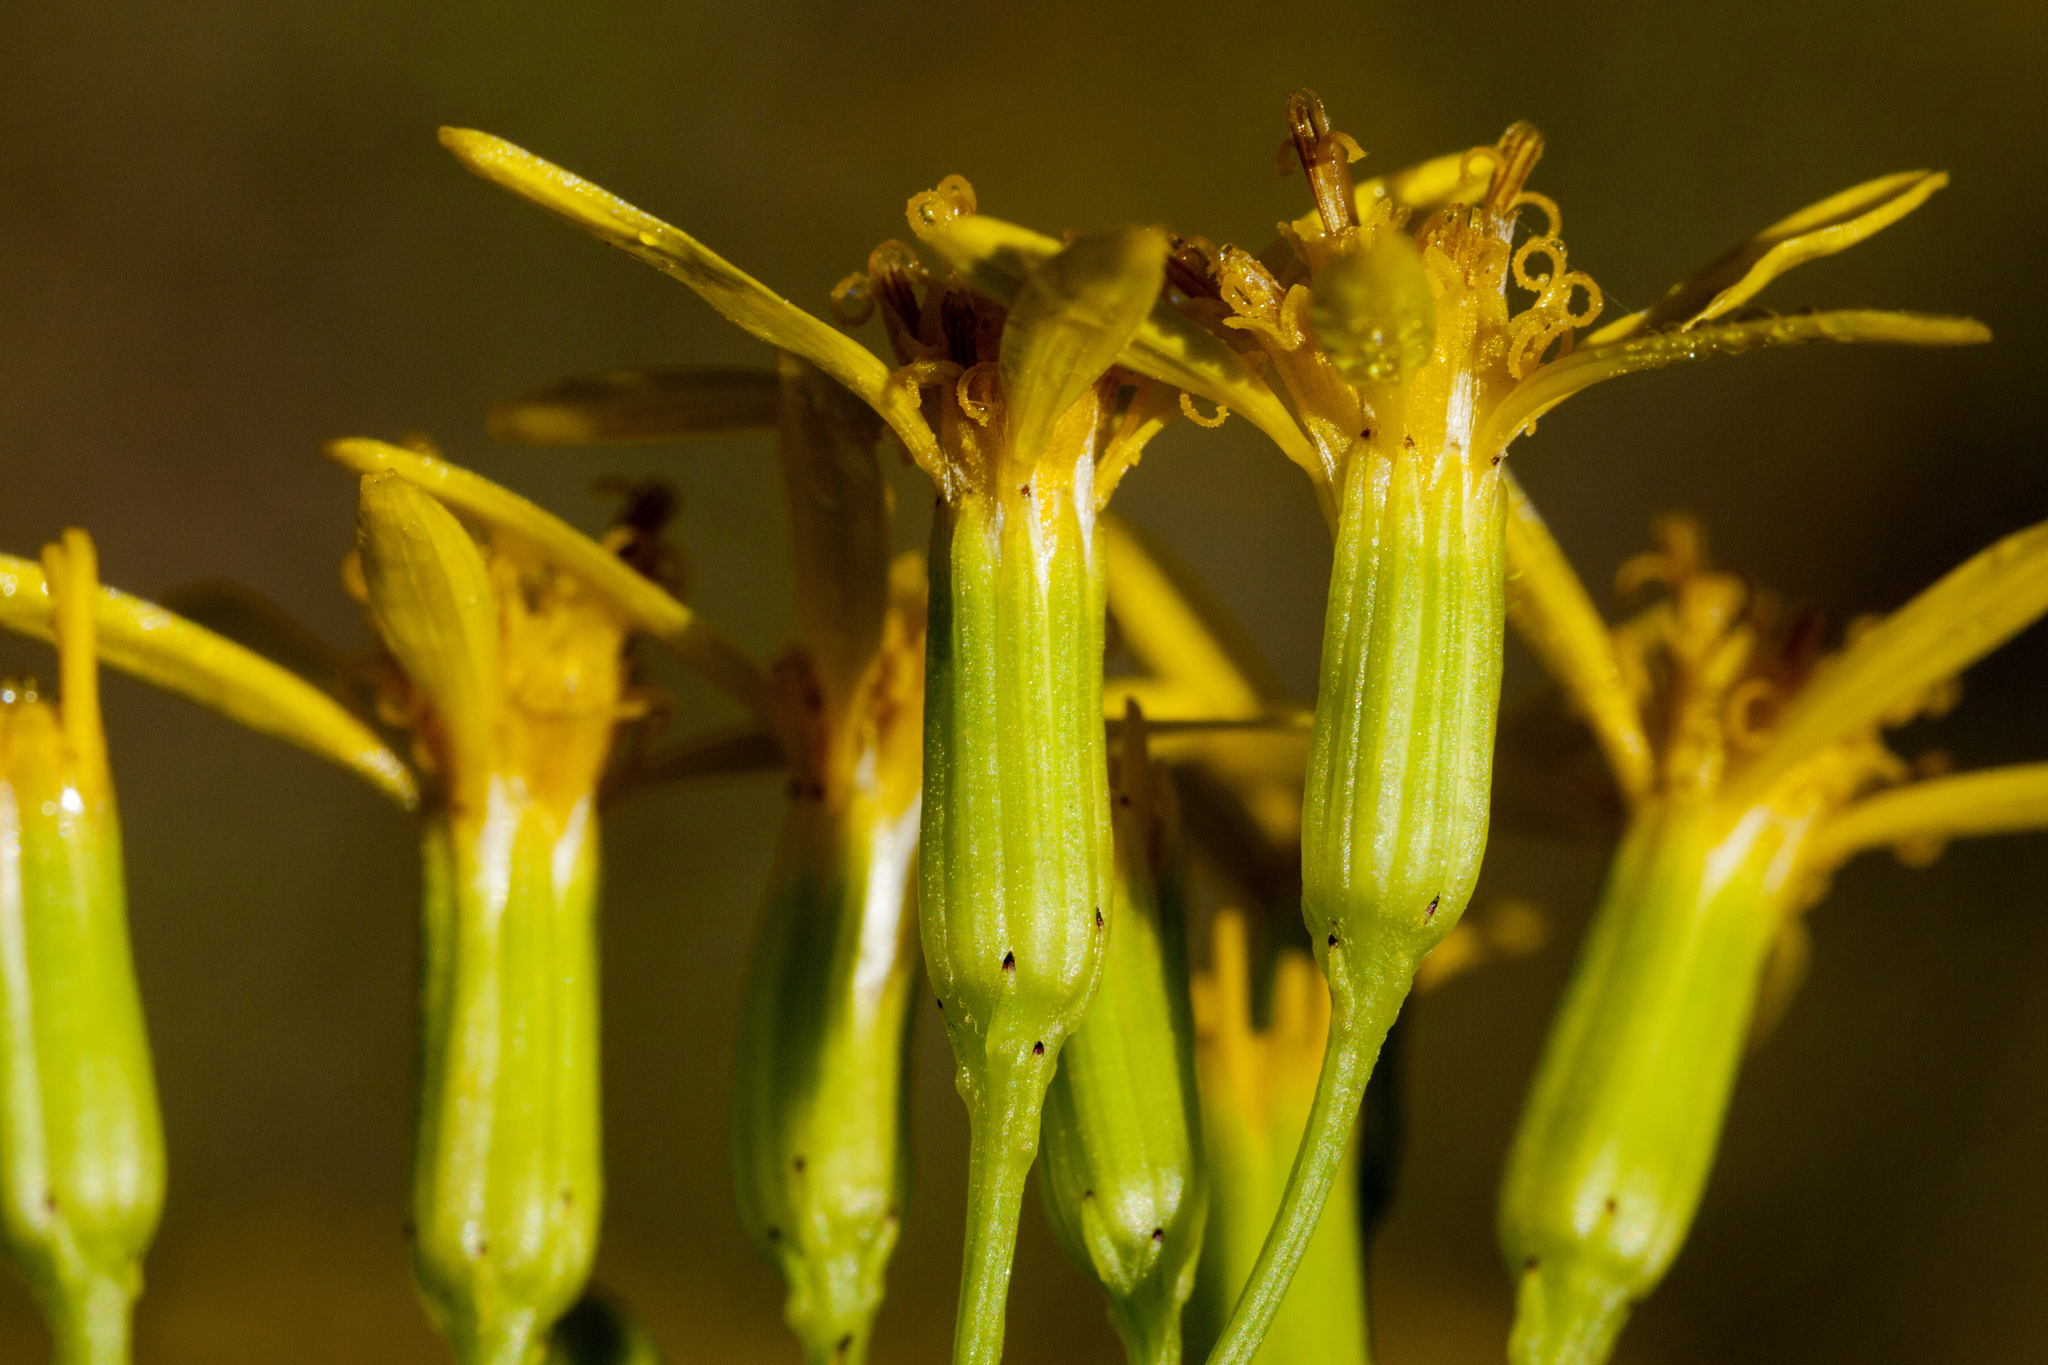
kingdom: Plantae
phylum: Tracheophyta
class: Magnoliopsida
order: Asterales
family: Asteraceae
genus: Senecio
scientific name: Senecio spartioides
